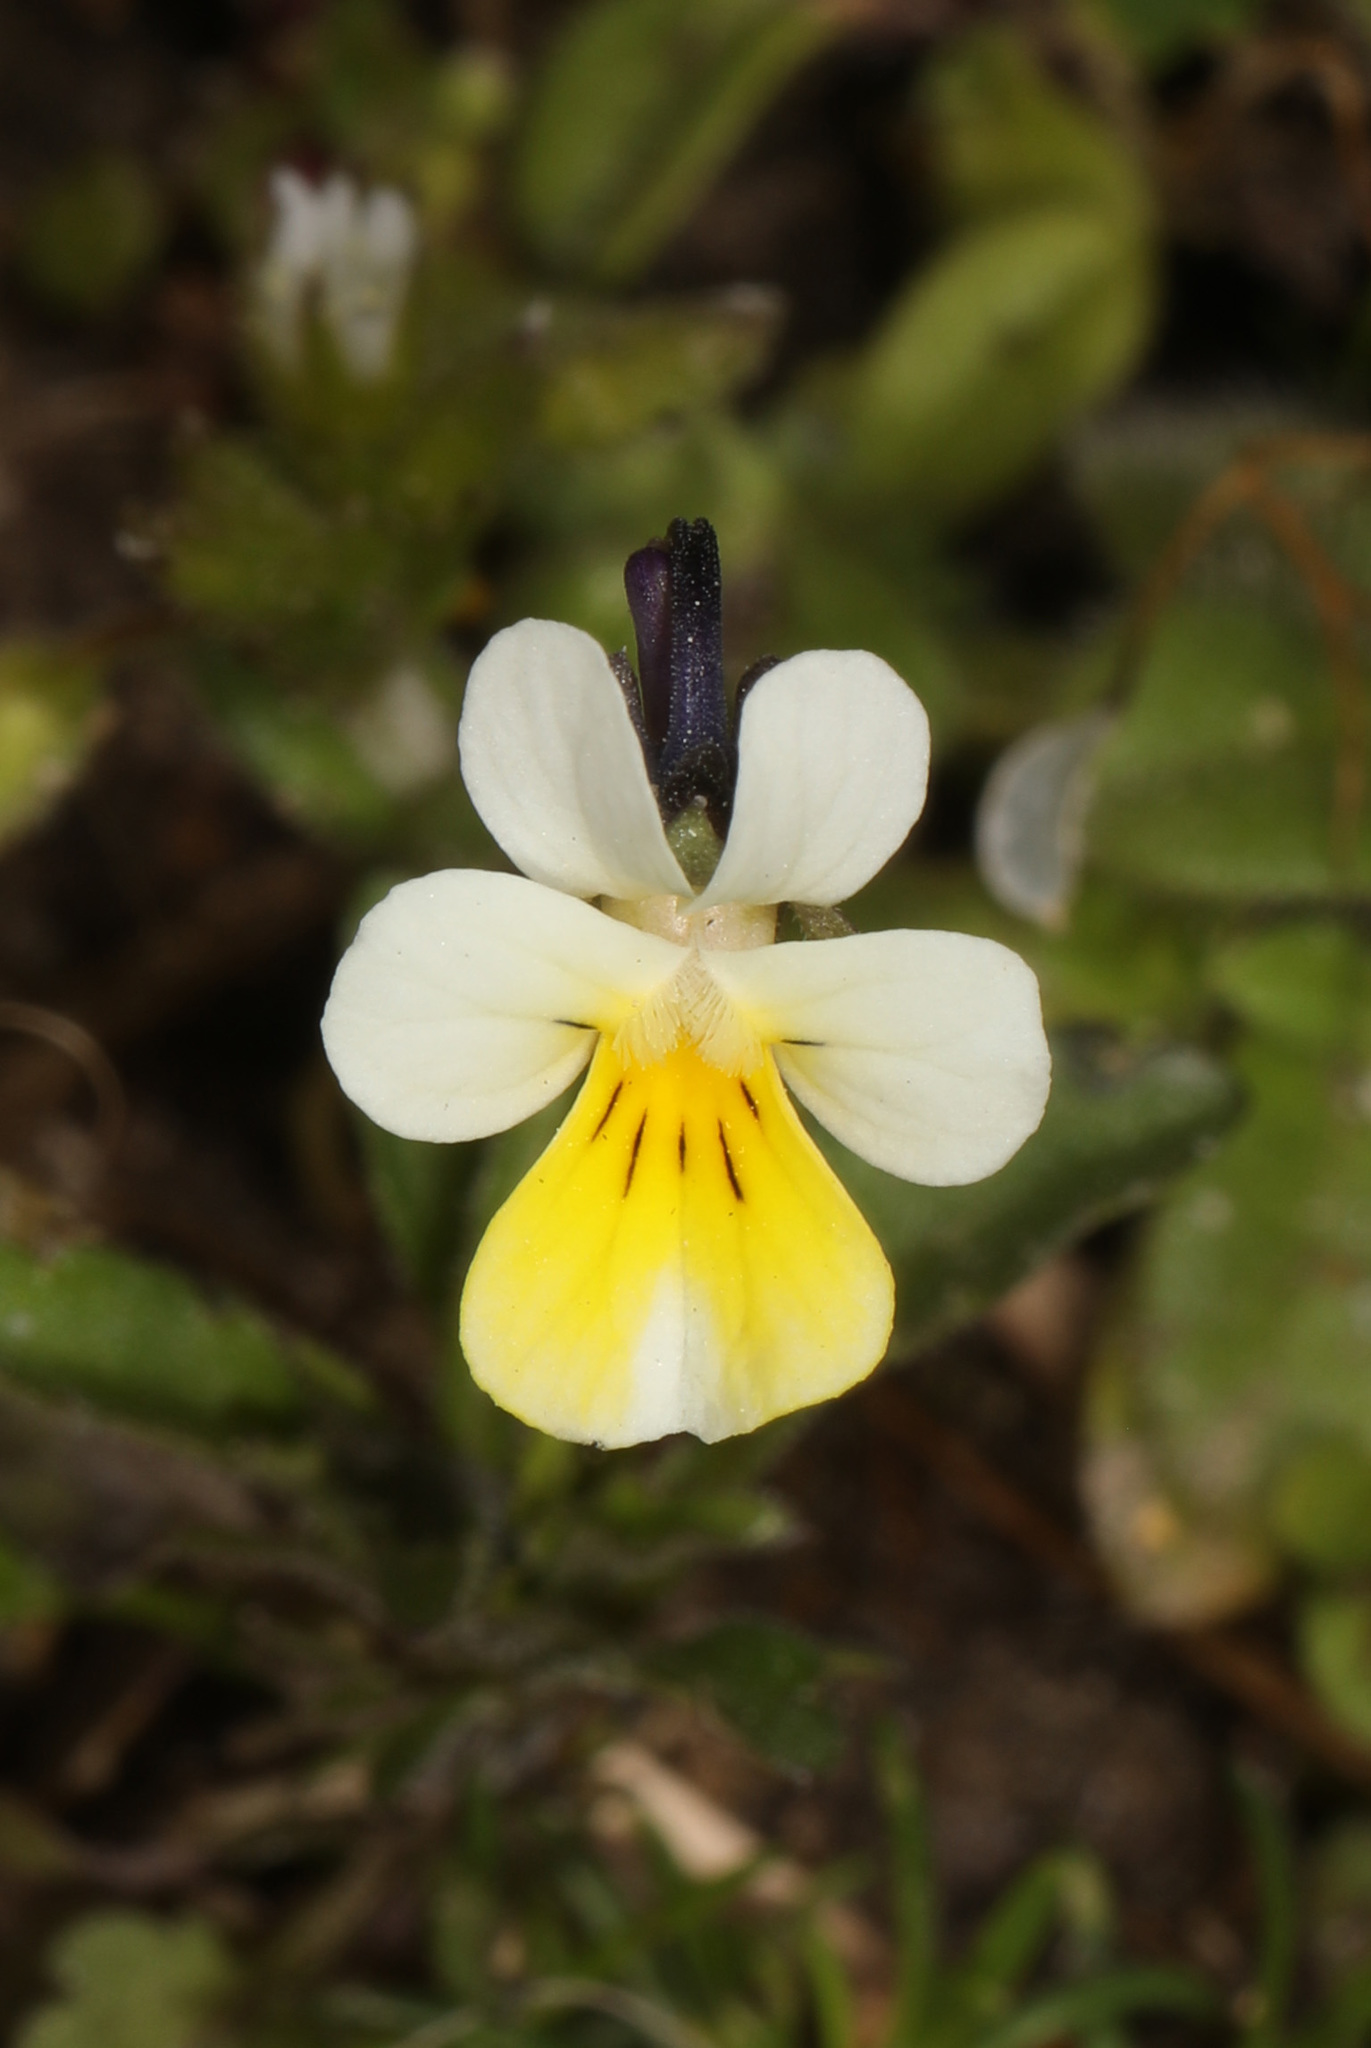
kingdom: Plantae
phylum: Tracheophyta
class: Magnoliopsida
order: Malpighiales
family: Violaceae
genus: Viola
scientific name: Viola arvensis
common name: Field pansy
